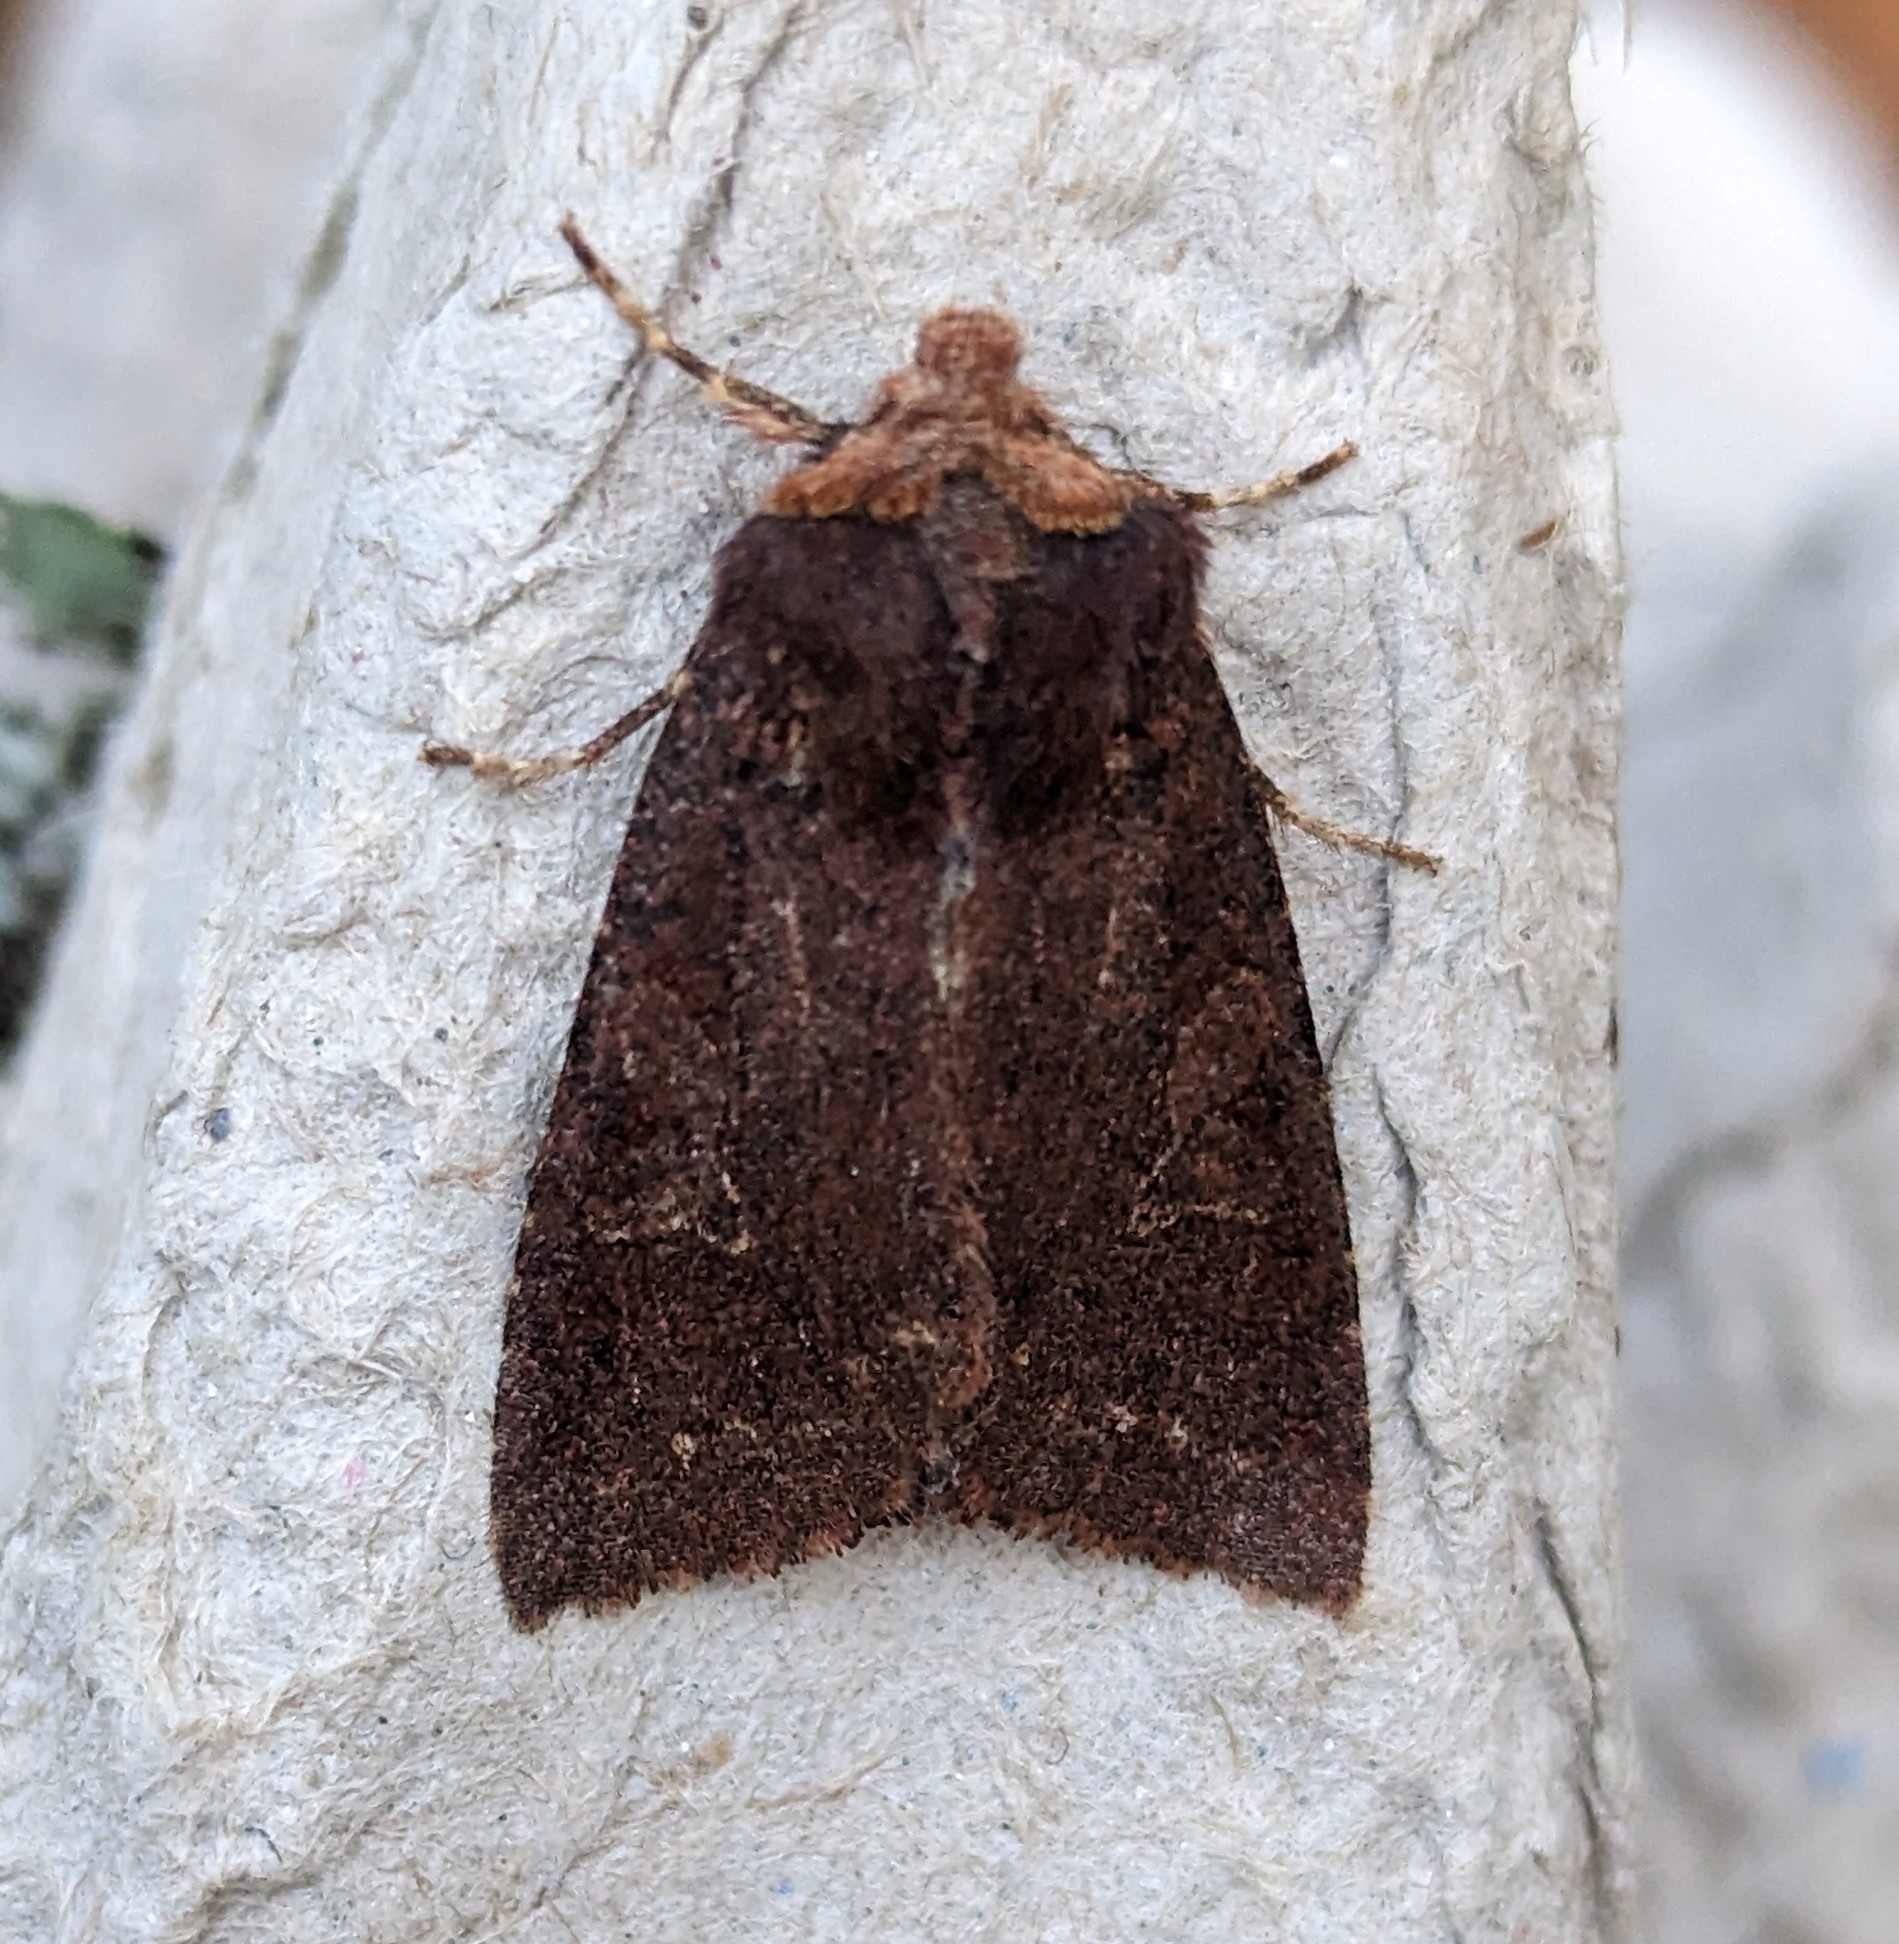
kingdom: Animalia
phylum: Arthropoda
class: Insecta
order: Lepidoptera
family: Noctuidae
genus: Orthosia
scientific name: Orthosia praeses
